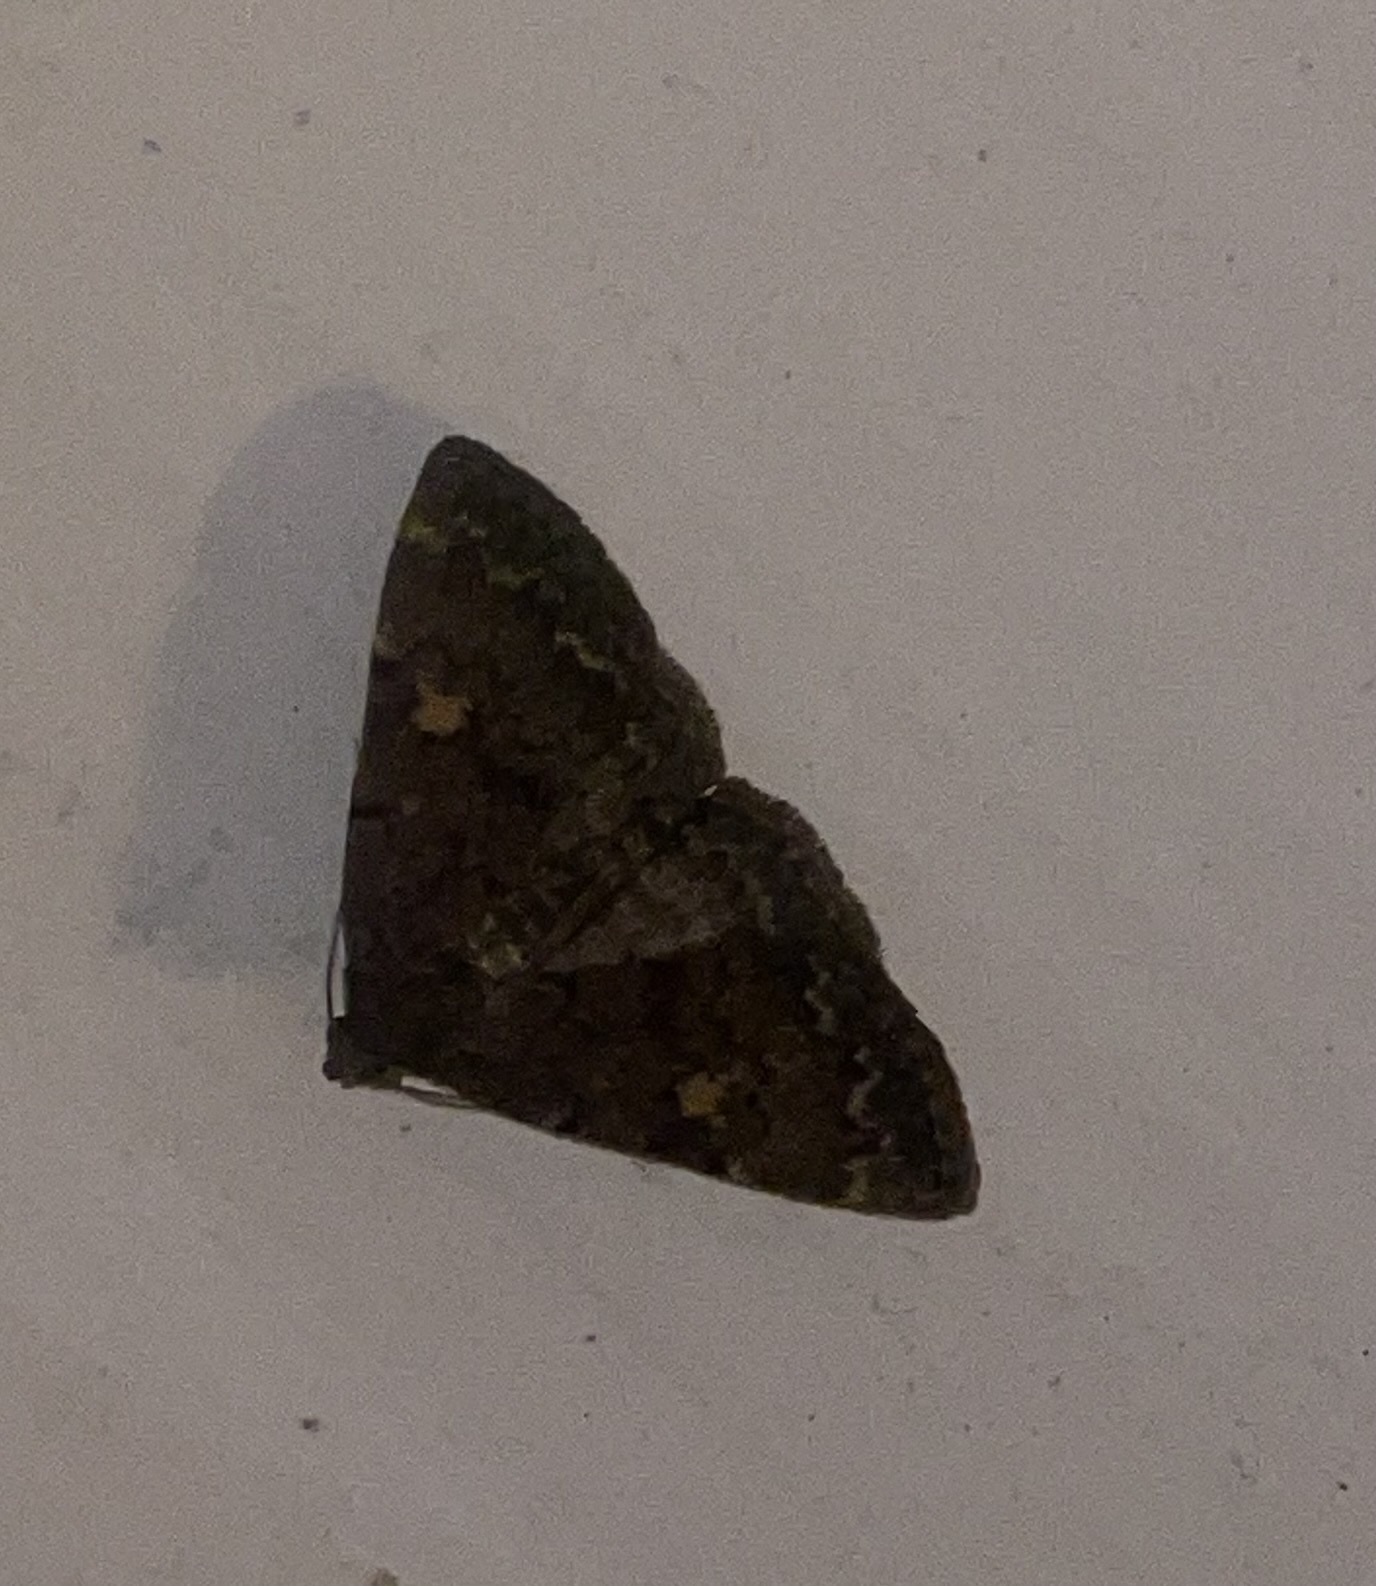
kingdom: Animalia
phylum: Arthropoda
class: Insecta
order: Lepidoptera
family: Erebidae
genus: Idia
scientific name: Idia aemula
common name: Common idia moth
